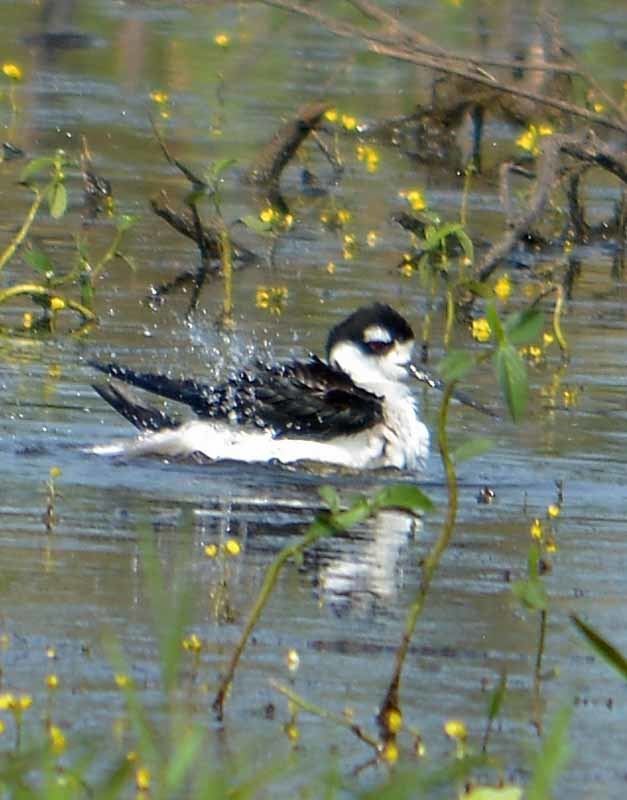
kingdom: Animalia
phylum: Chordata
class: Aves
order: Charadriiformes
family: Recurvirostridae
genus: Himantopus
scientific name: Himantopus mexicanus
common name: Black-necked stilt
